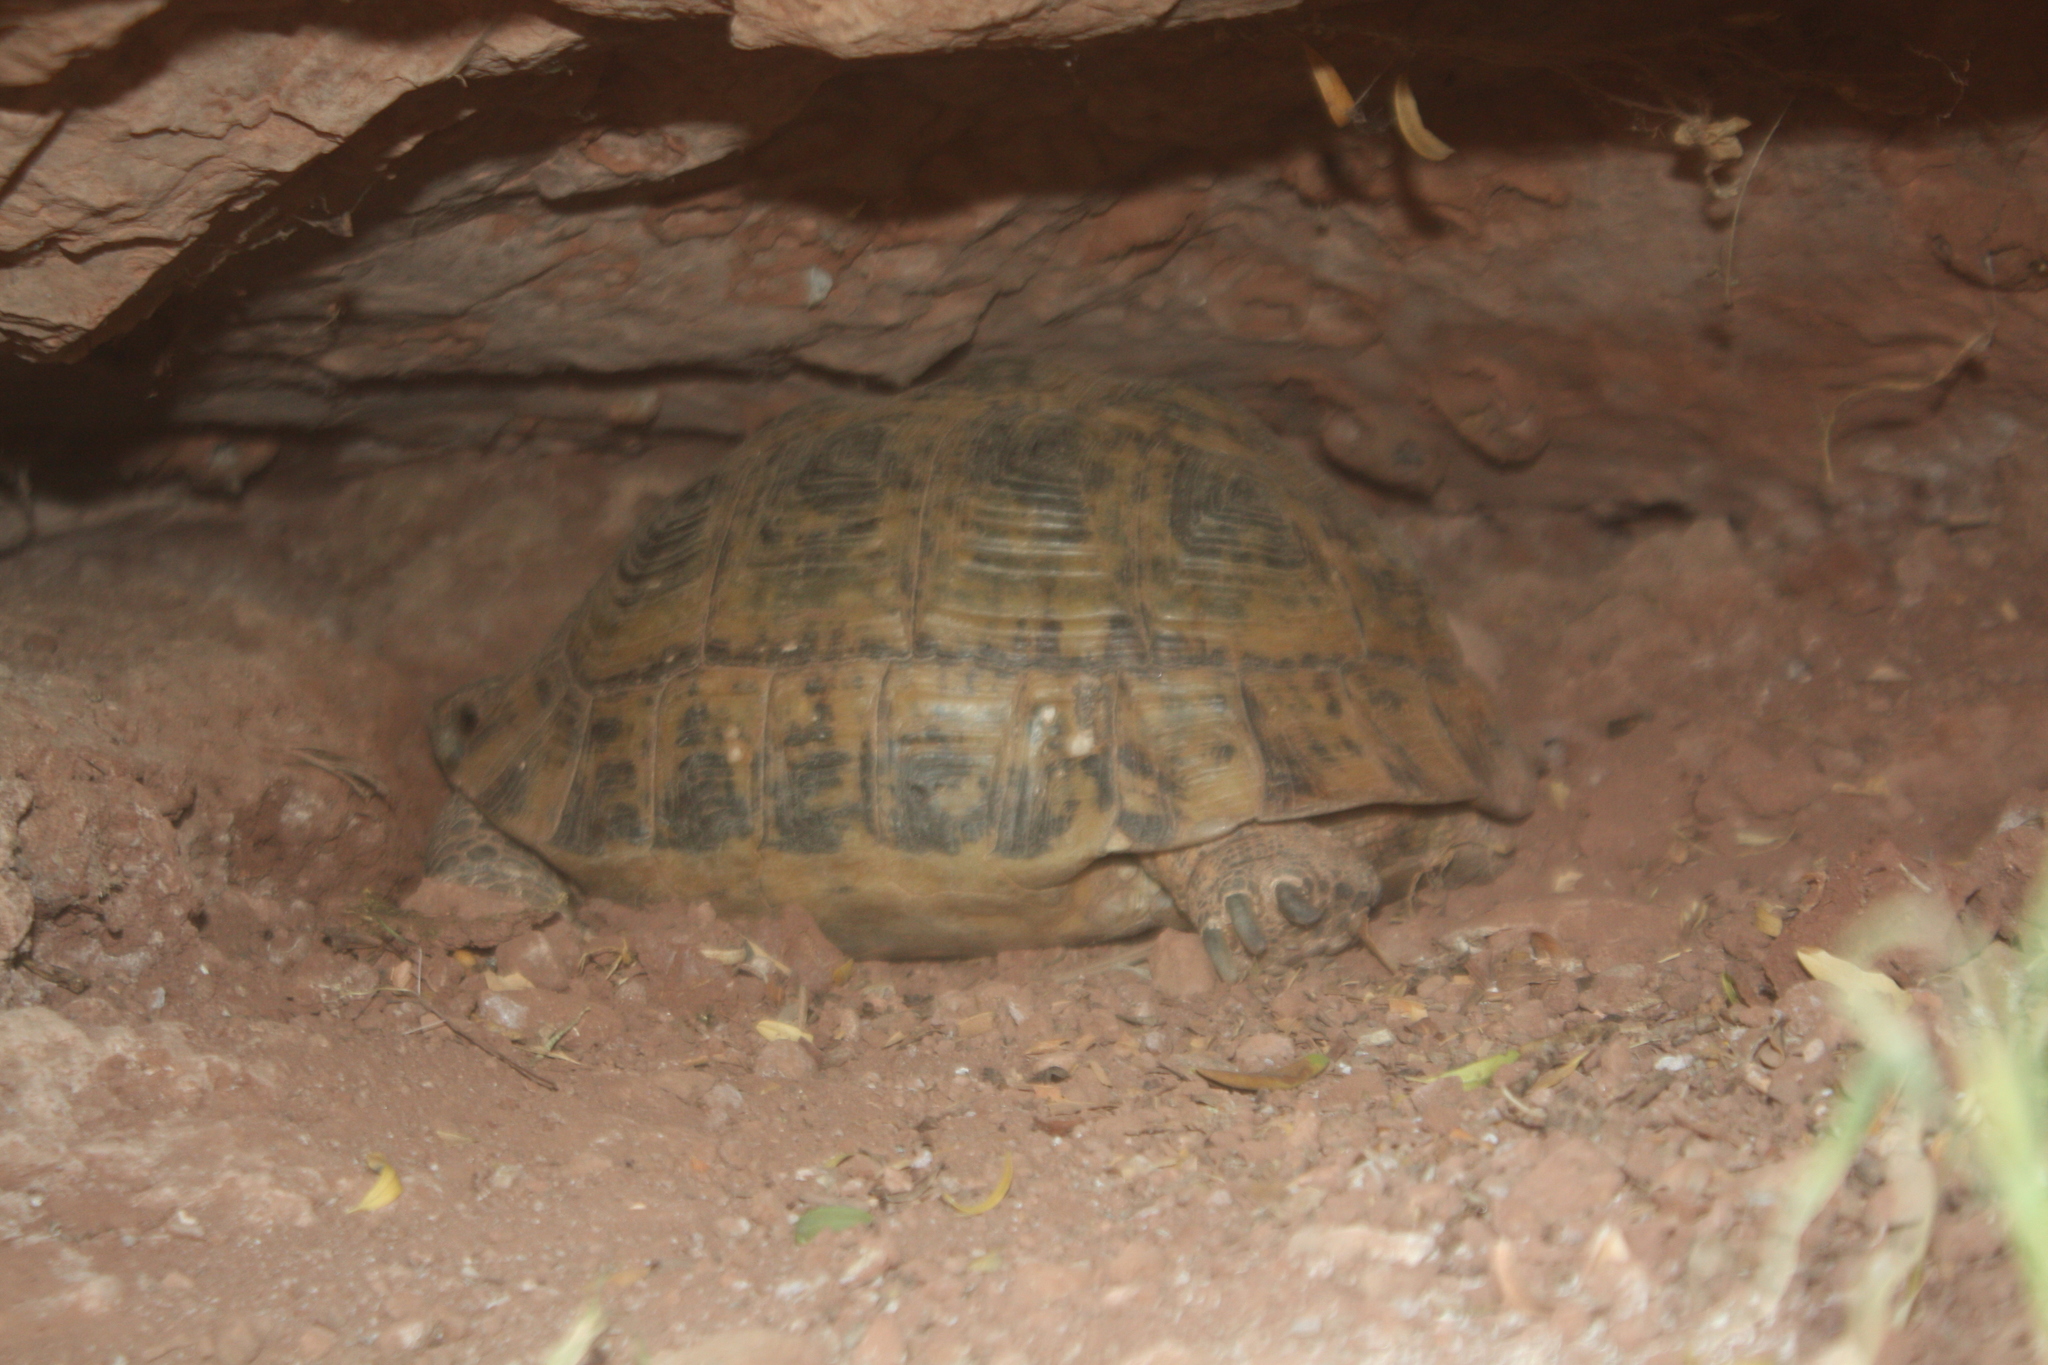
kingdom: Animalia
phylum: Chordata
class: Testudines
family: Testudinidae
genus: Testudo
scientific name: Testudo graeca
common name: Common tortoise
